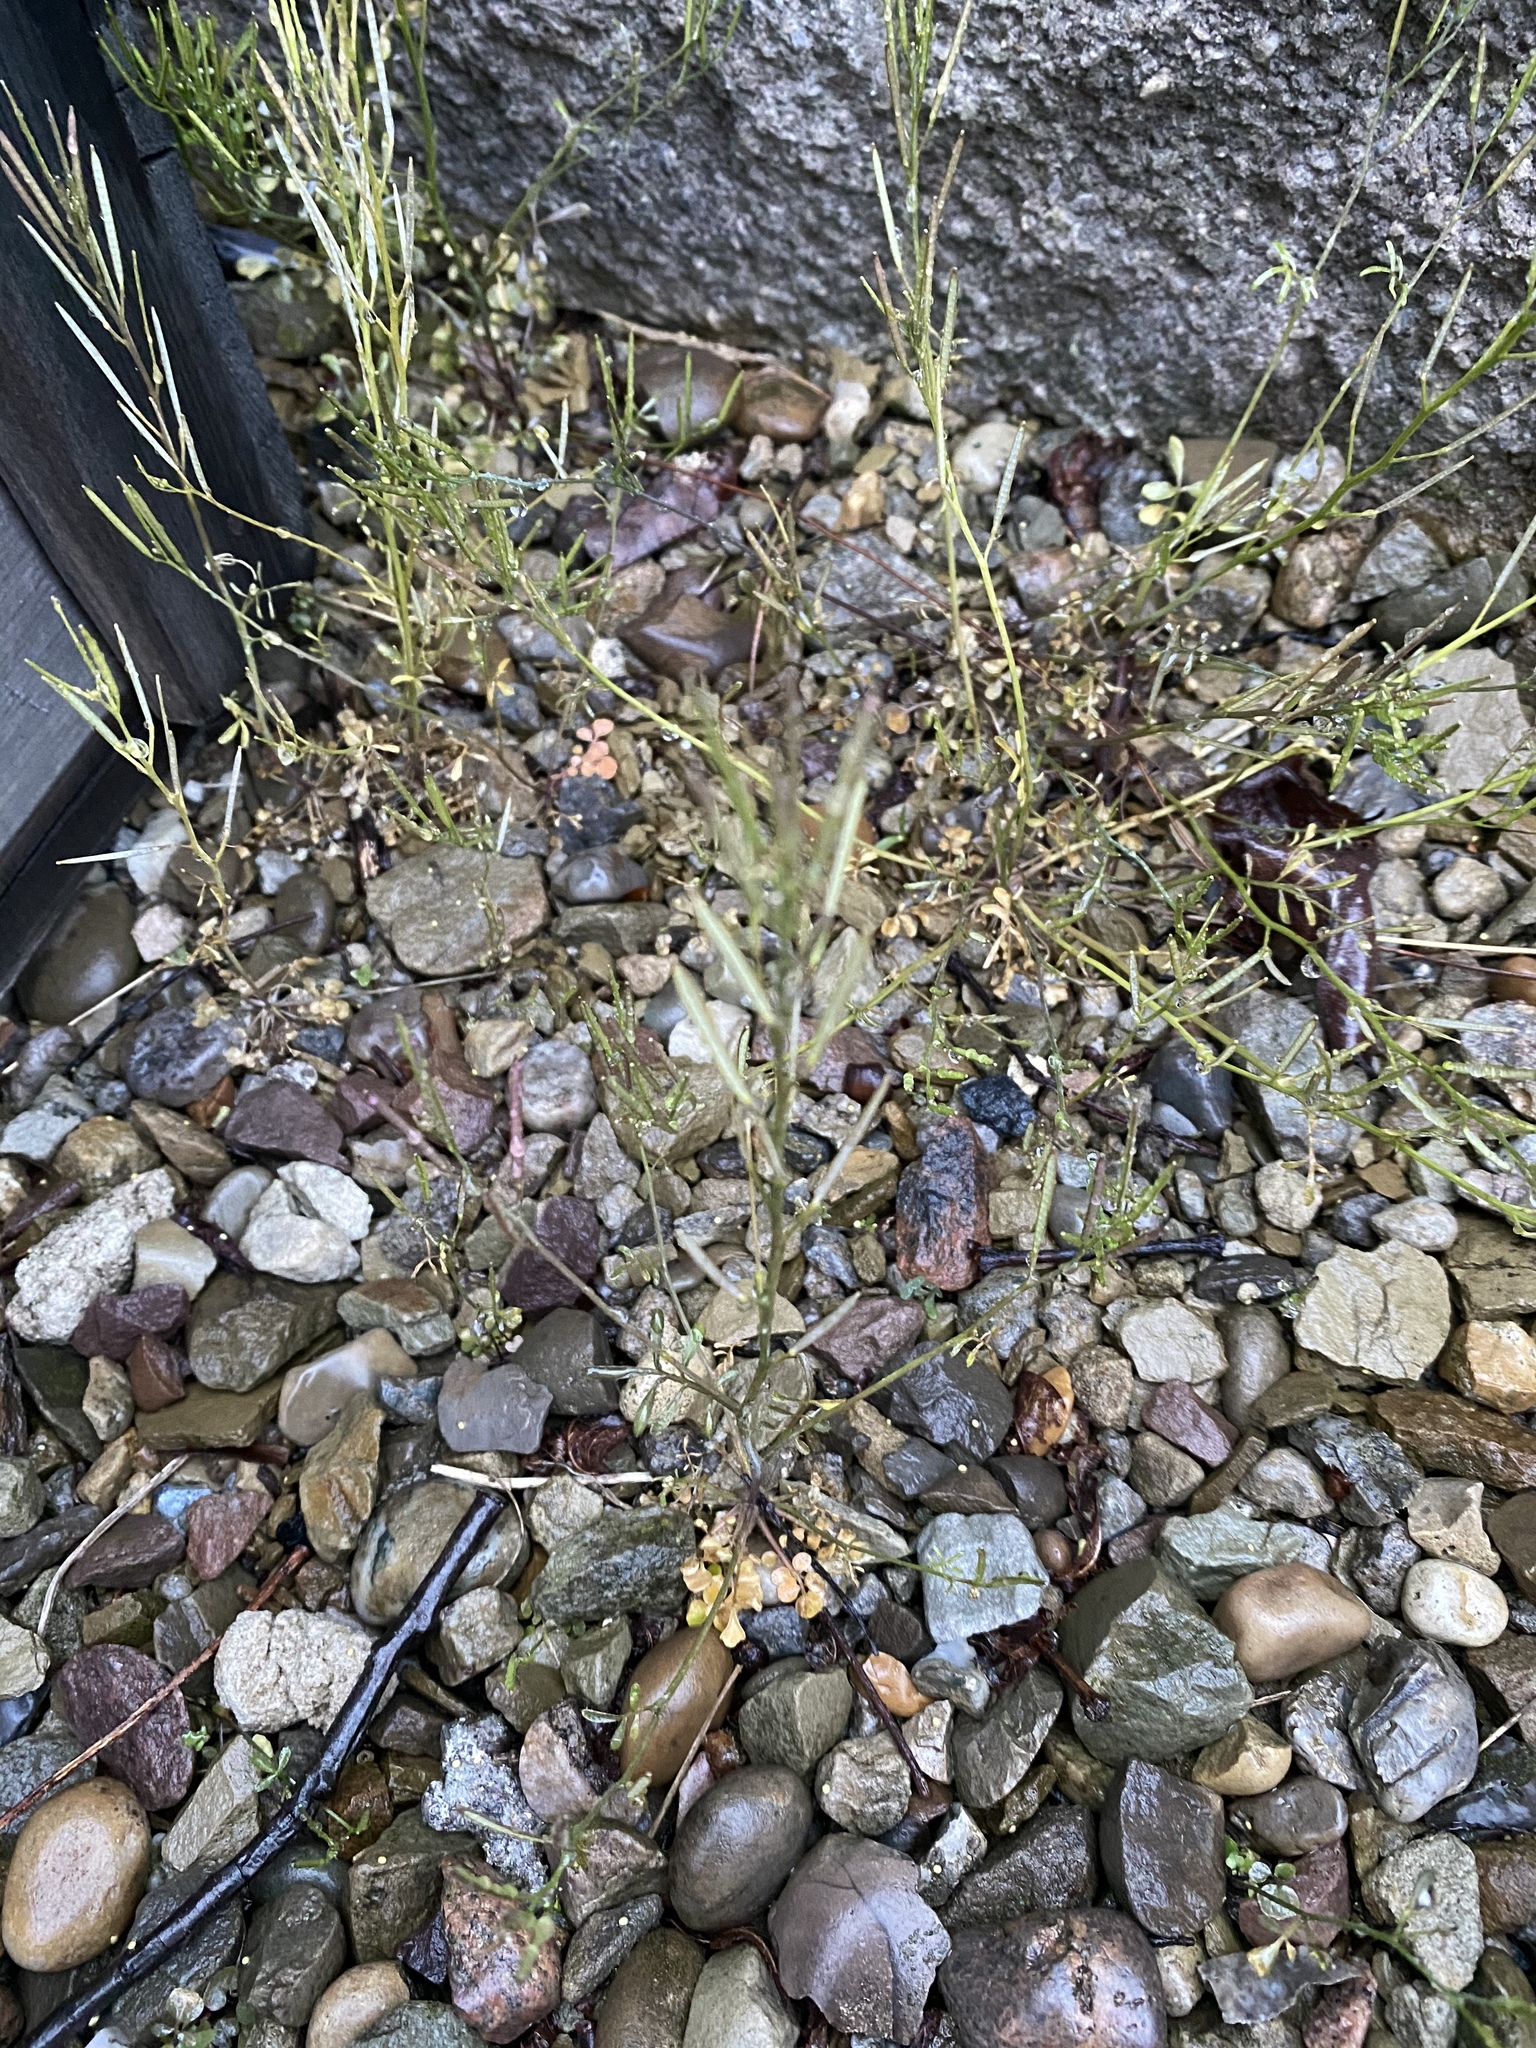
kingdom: Plantae
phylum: Tracheophyta
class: Magnoliopsida
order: Brassicales
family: Brassicaceae
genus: Cardamine
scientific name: Cardamine hirsuta
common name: Hairy bittercress
